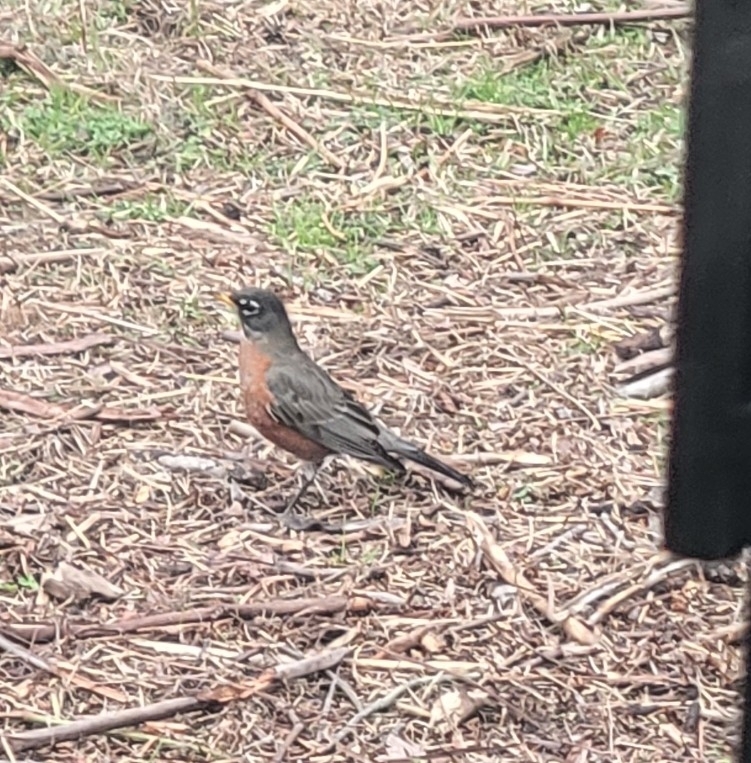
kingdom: Animalia
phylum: Chordata
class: Aves
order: Passeriformes
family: Turdidae
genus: Turdus
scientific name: Turdus migratorius
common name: American robin
